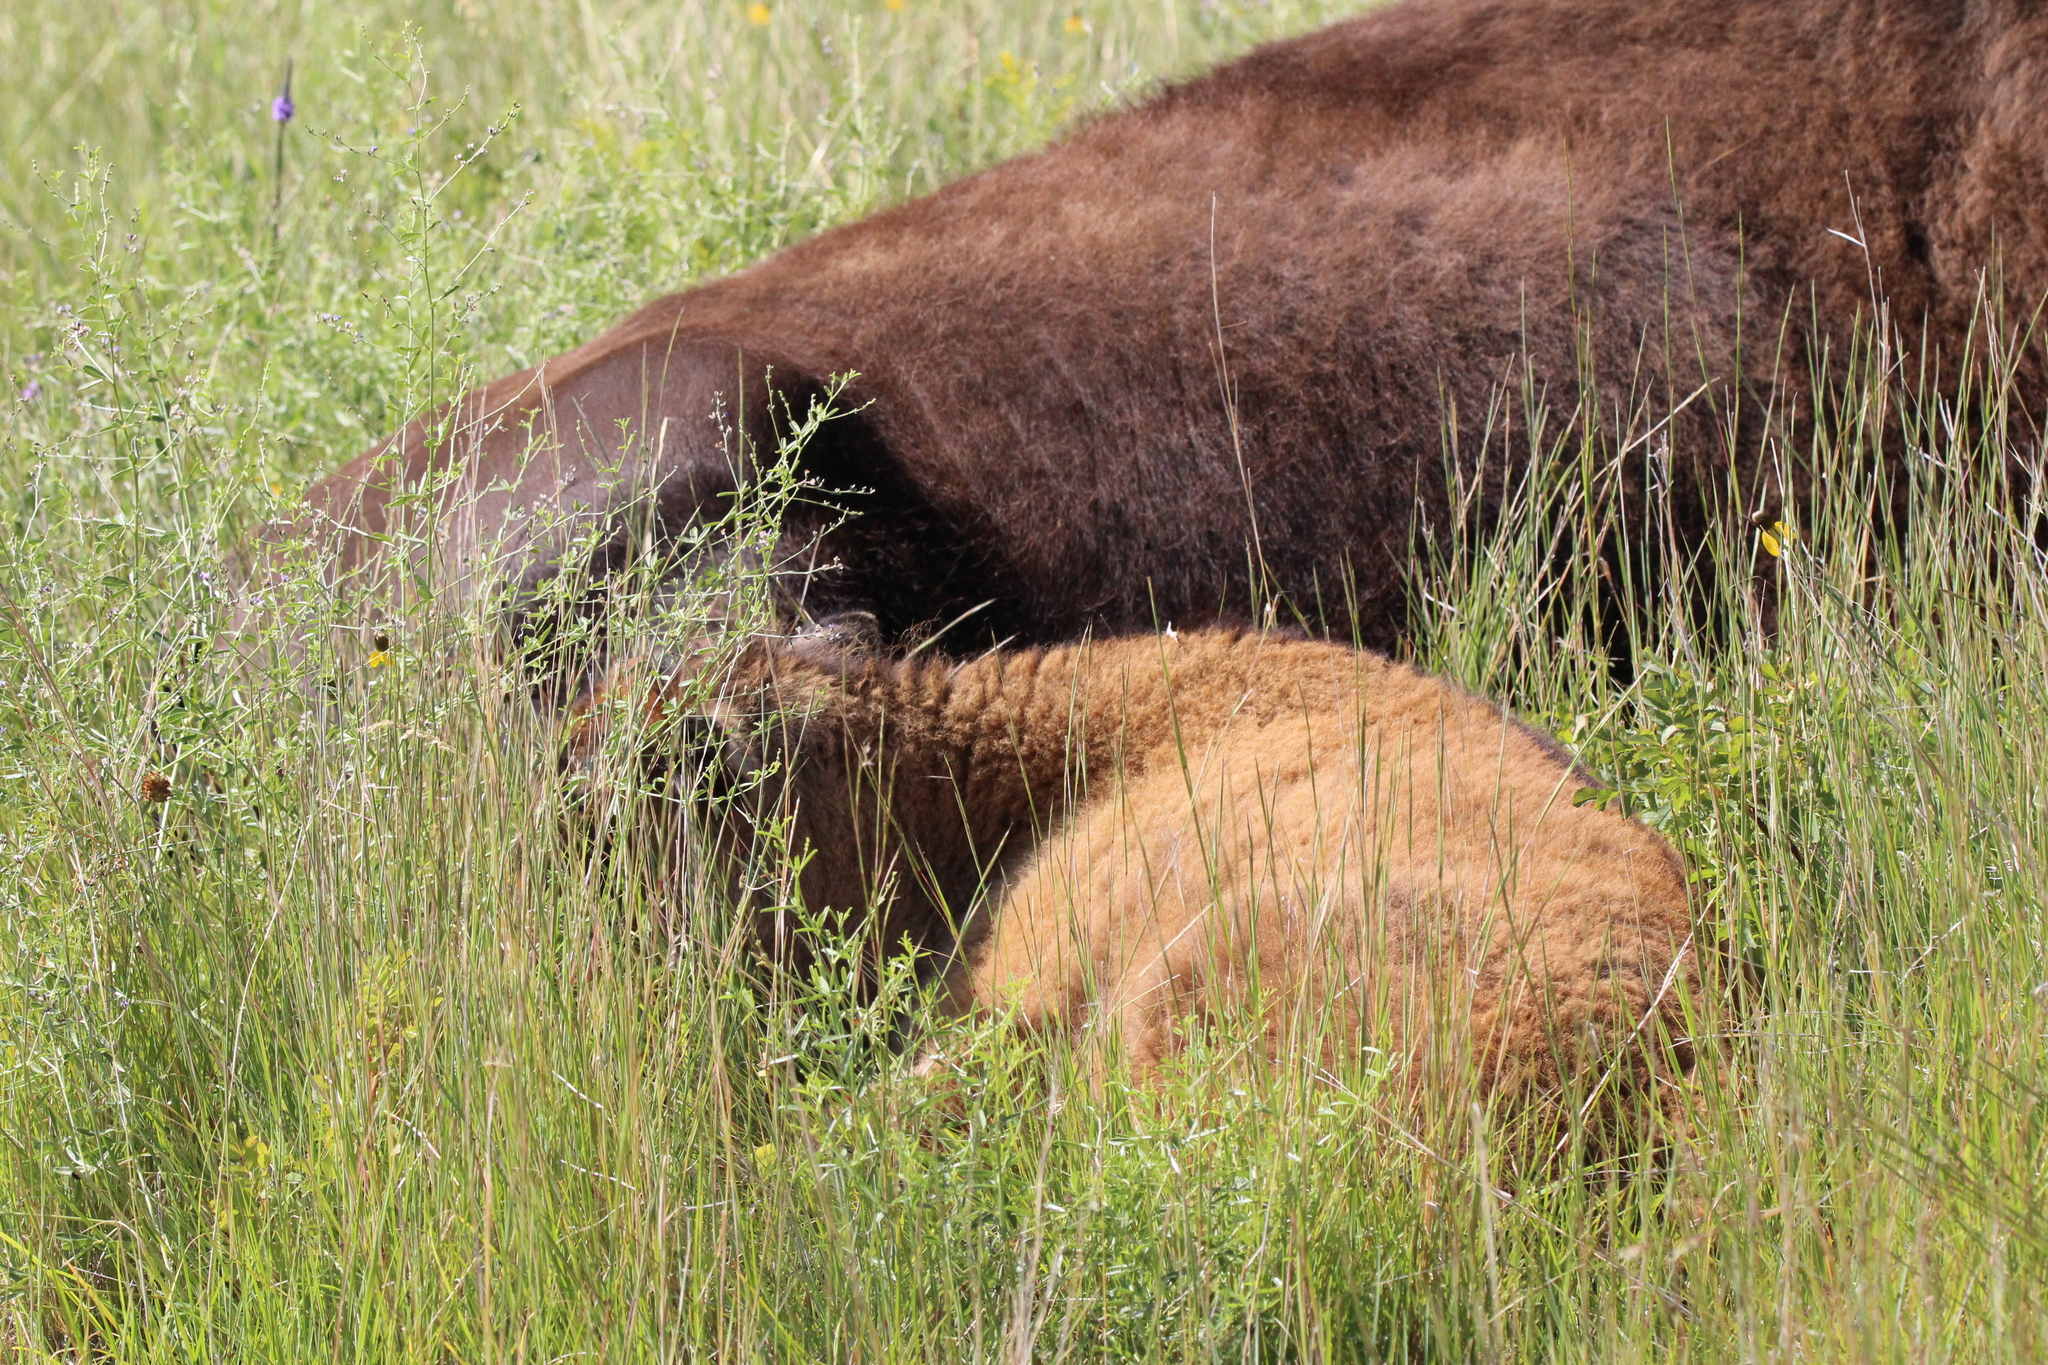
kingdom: Animalia
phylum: Chordata
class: Mammalia
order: Artiodactyla
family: Bovidae
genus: Bison
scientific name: Bison bison
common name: American bison
